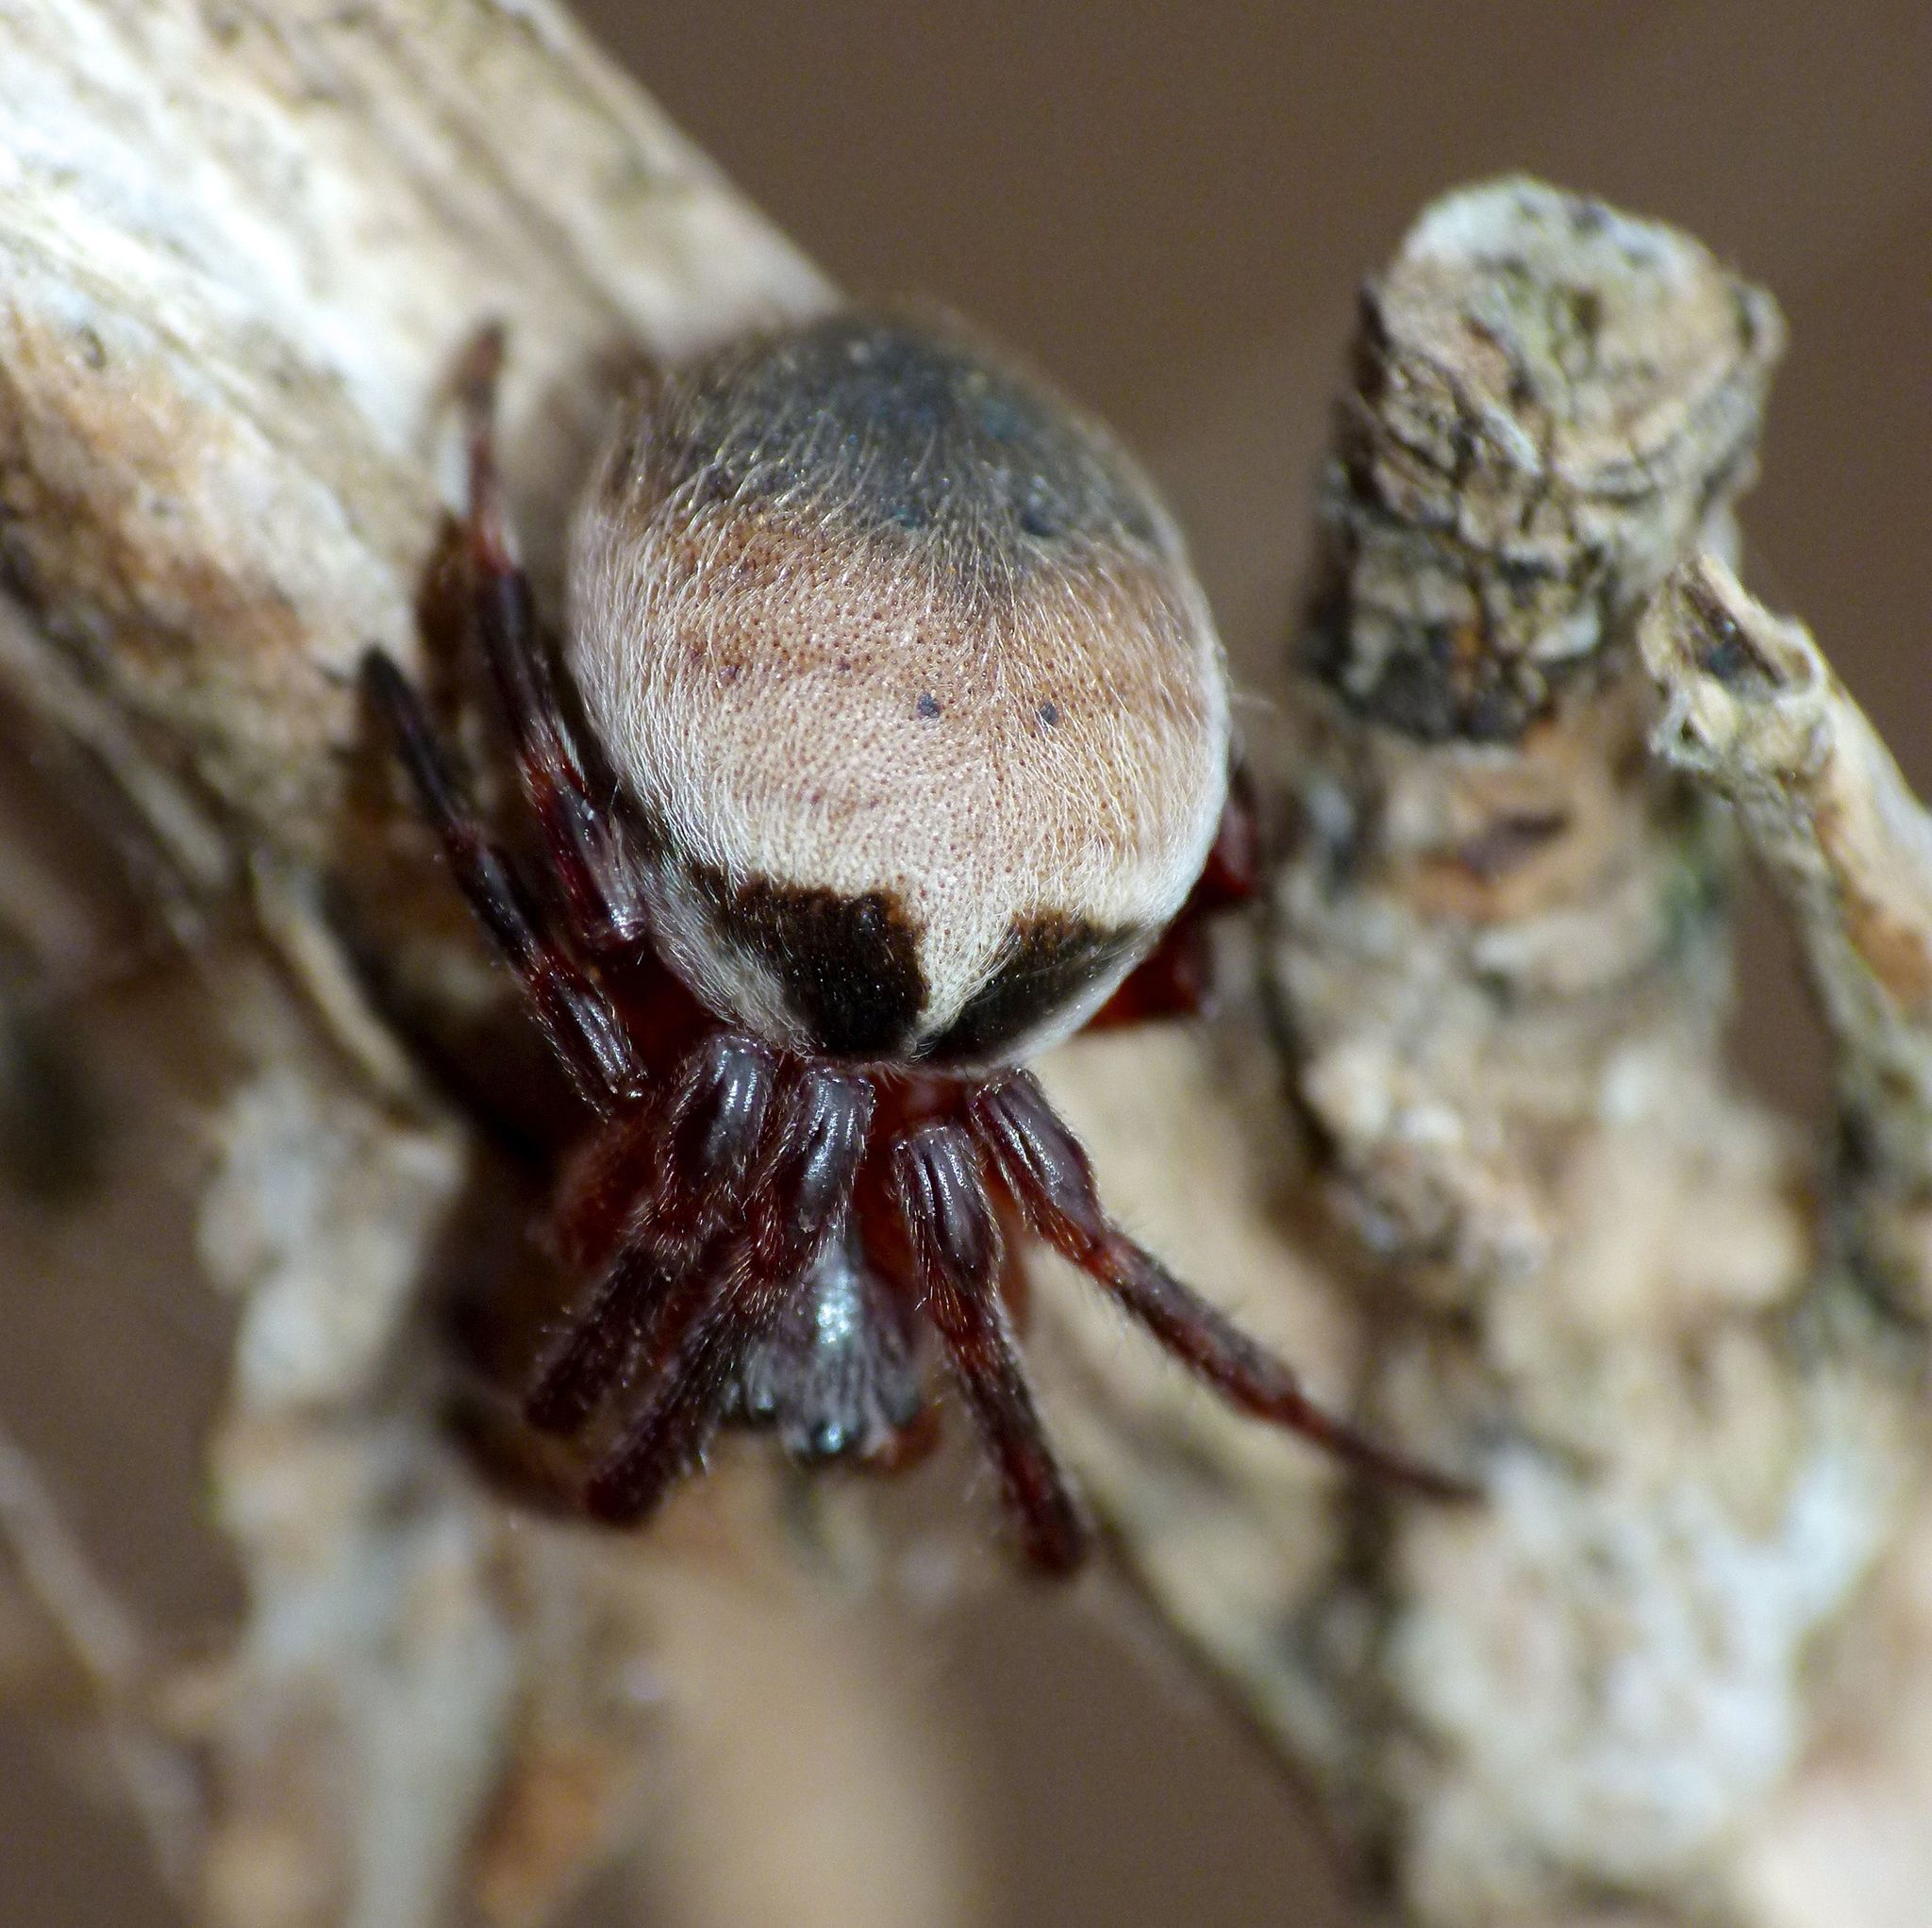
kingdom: Animalia
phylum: Arthropoda
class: Arachnida
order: Araneae
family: Araneidae
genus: Araneus
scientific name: Araneus dimidiatus
